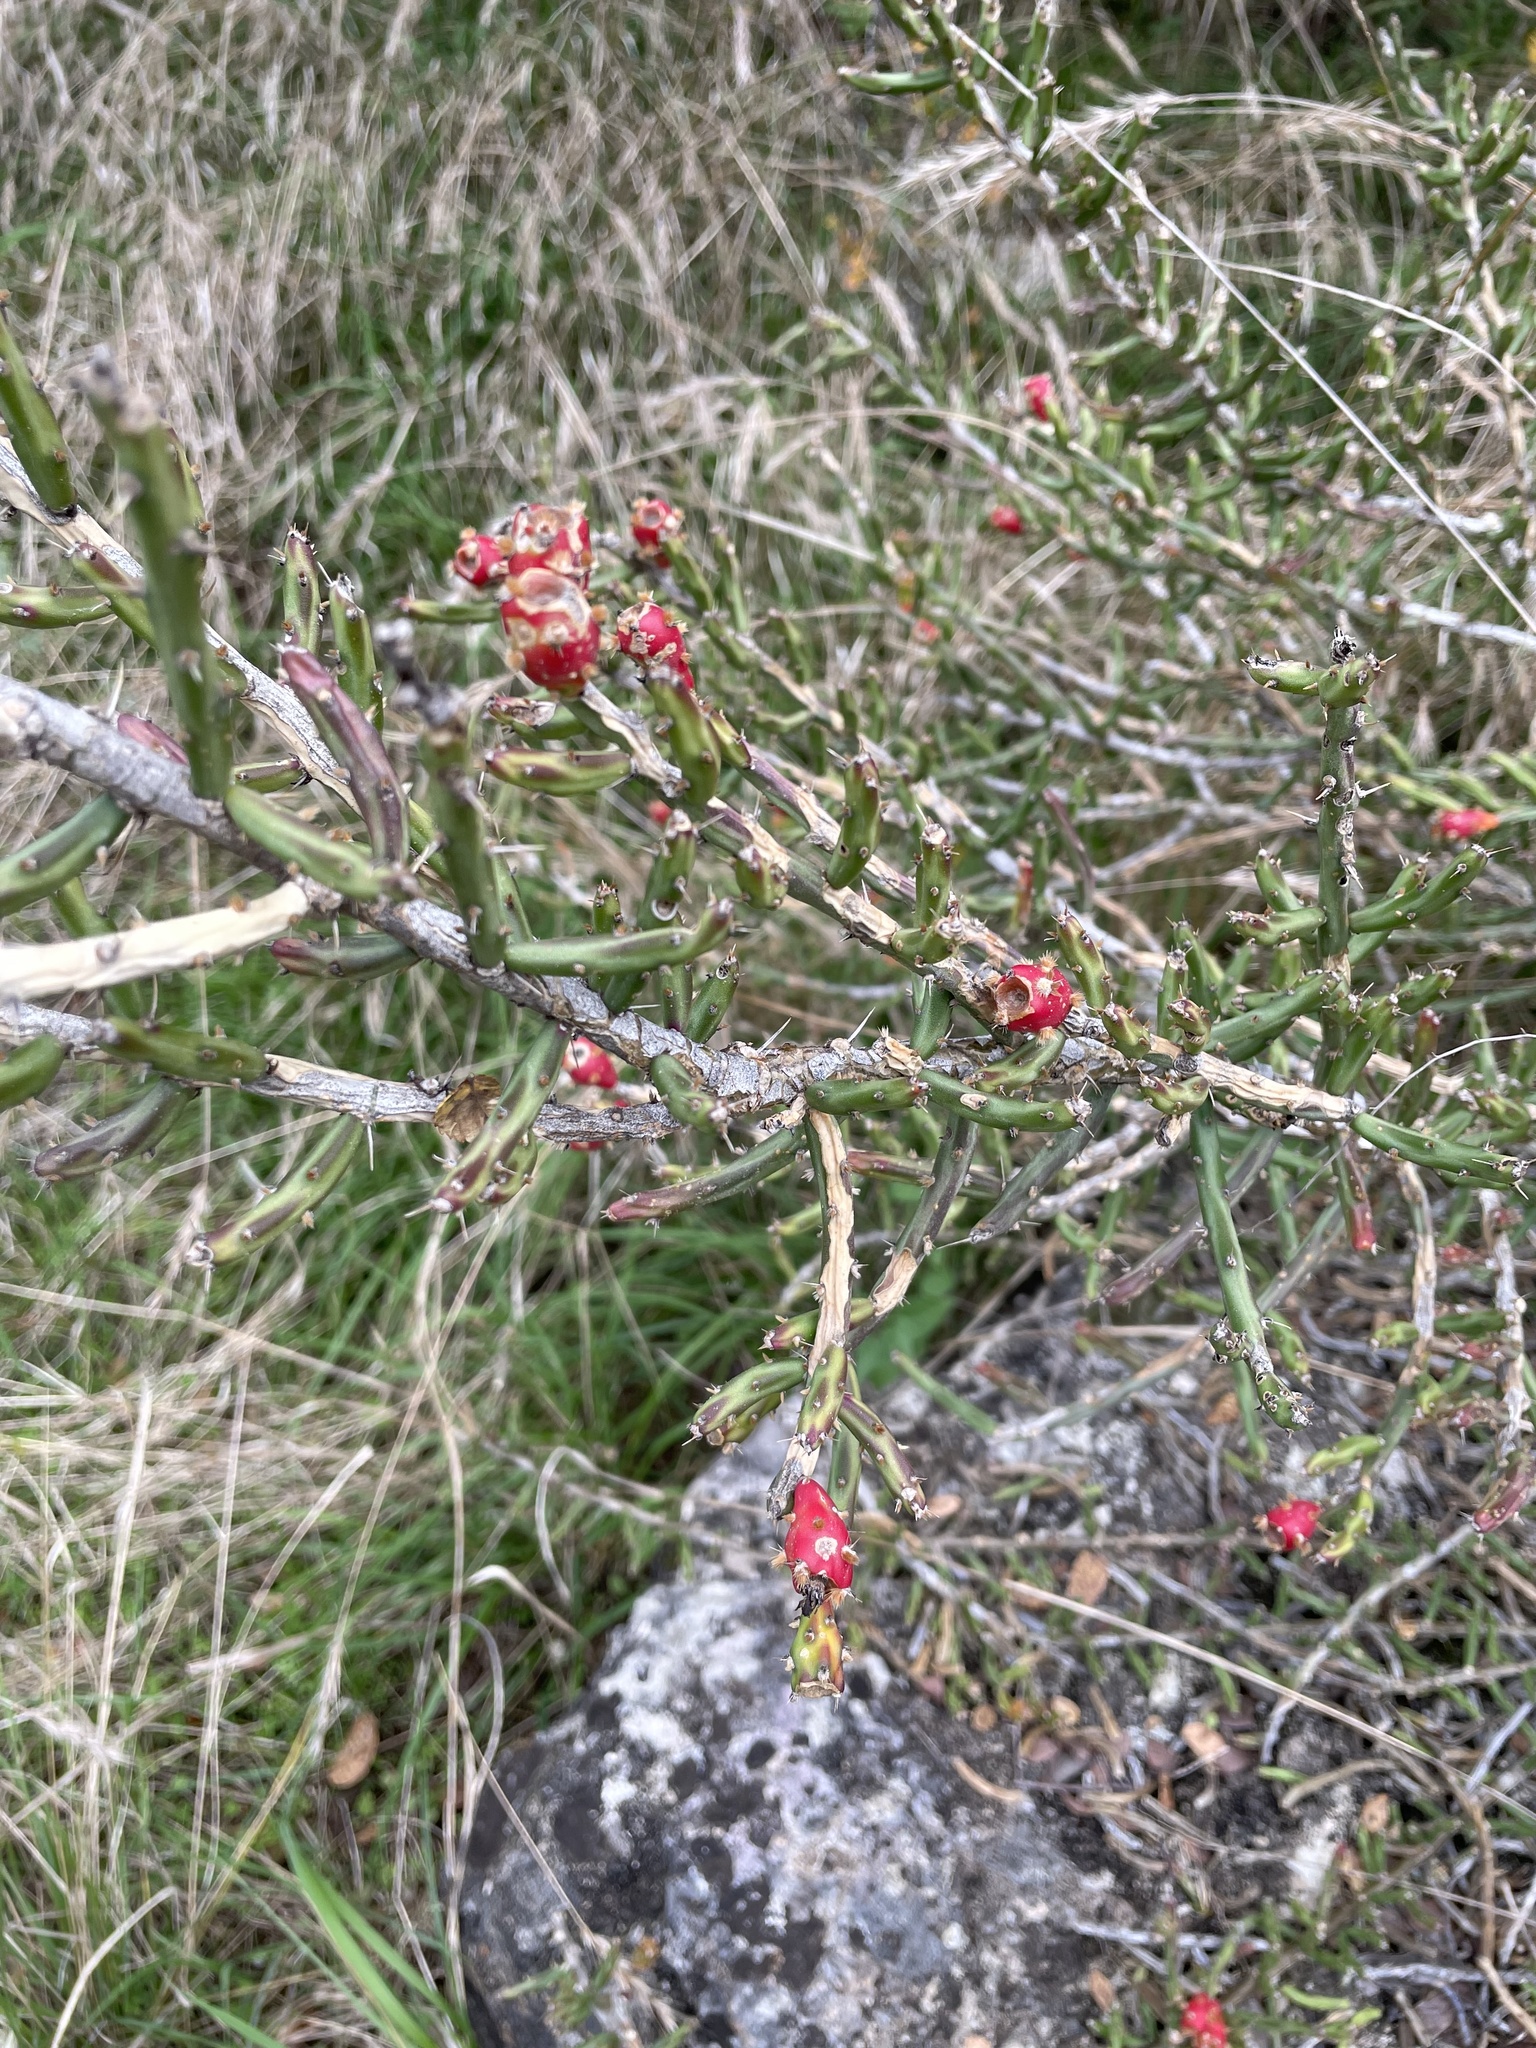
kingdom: Plantae
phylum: Tracheophyta
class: Magnoliopsida
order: Caryophyllales
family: Cactaceae
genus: Cylindropuntia
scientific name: Cylindropuntia leptocaulis
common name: Christmas cactus
